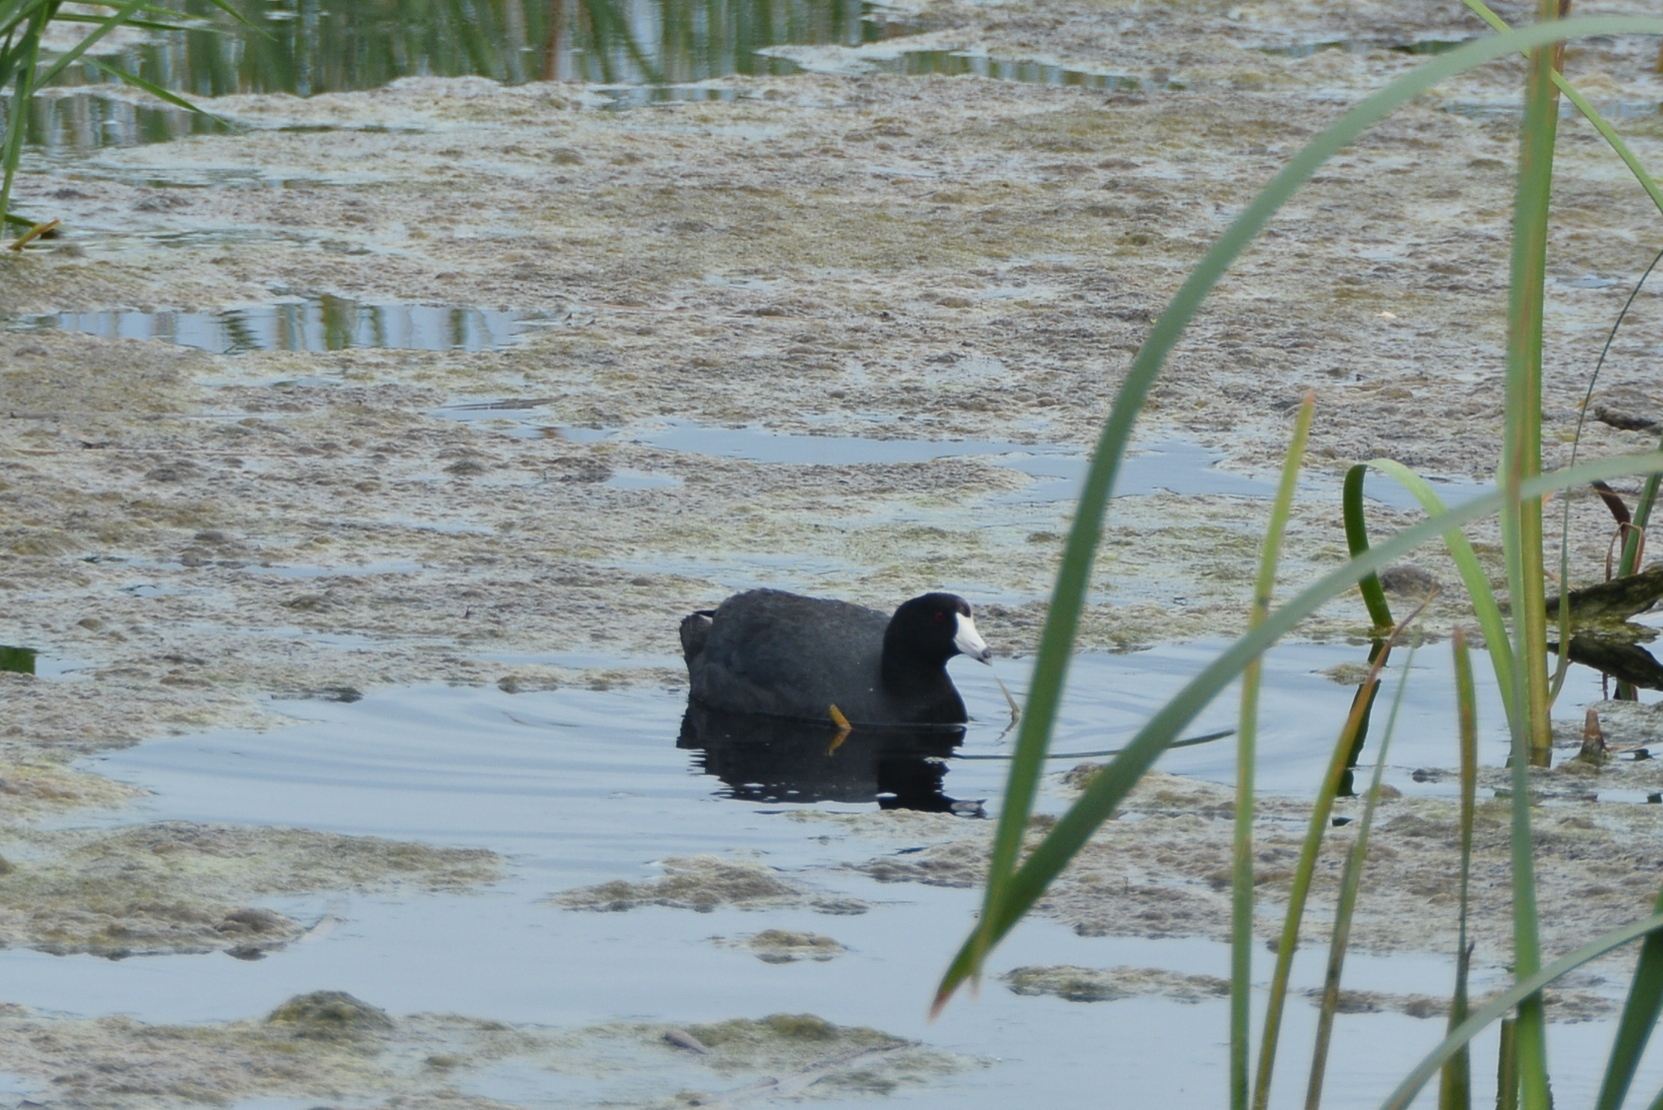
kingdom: Animalia
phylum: Chordata
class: Aves
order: Gruiformes
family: Rallidae
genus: Fulica
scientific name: Fulica americana
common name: American coot
